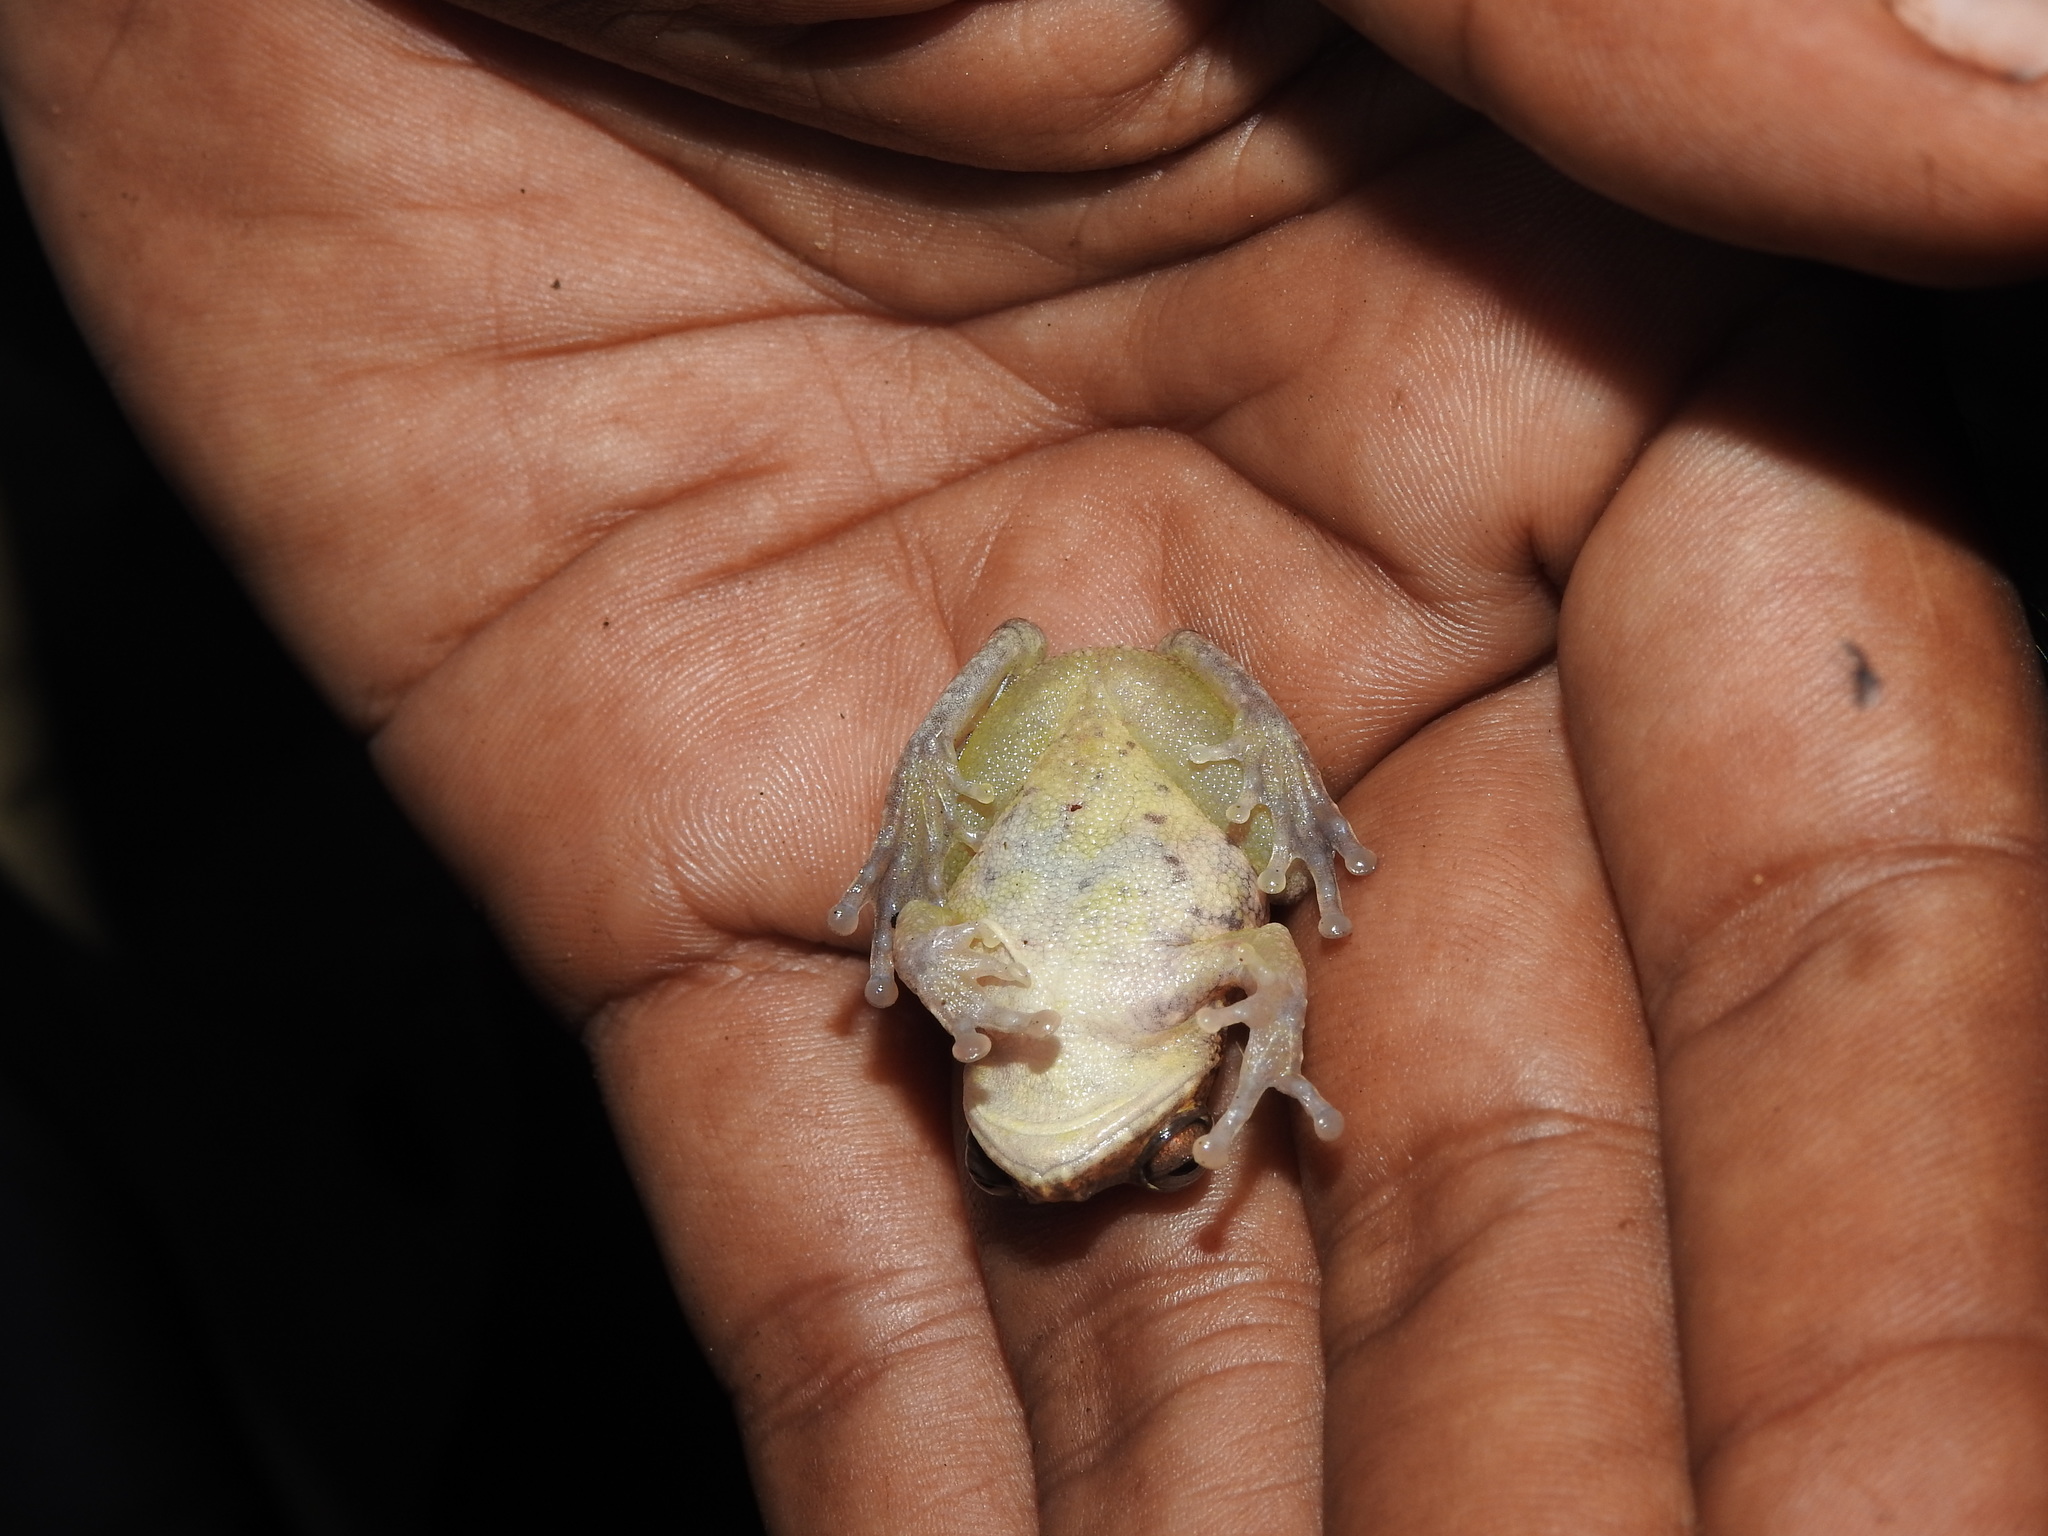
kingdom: Animalia
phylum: Chordata
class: Amphibia
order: Anura
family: Rhacophoridae
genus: Raorchestes
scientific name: Raorchestes hassanensis
